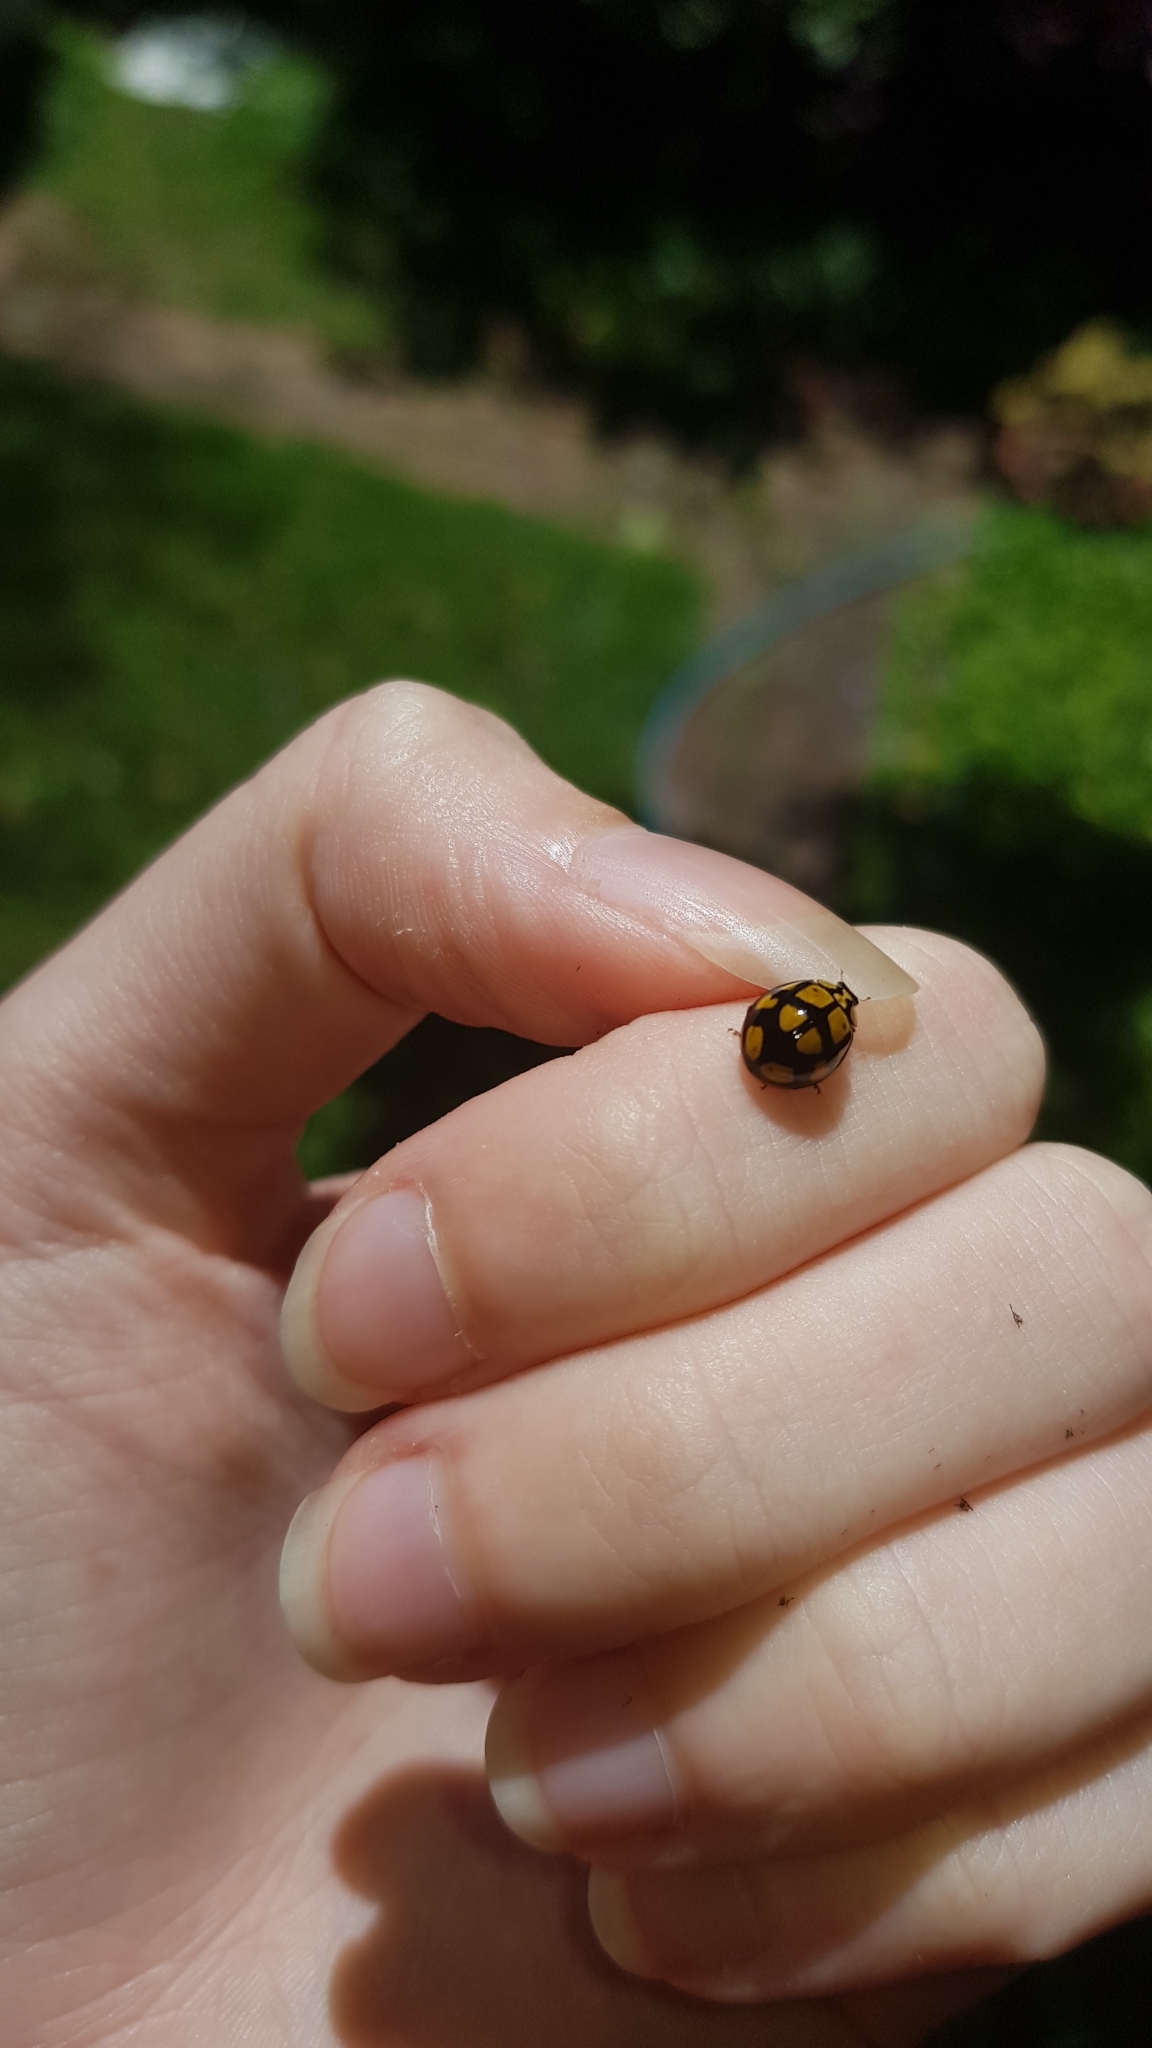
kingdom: Animalia
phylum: Arthropoda
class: Insecta
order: Coleoptera
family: Coccinellidae
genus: Harmonia
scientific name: Harmonia
